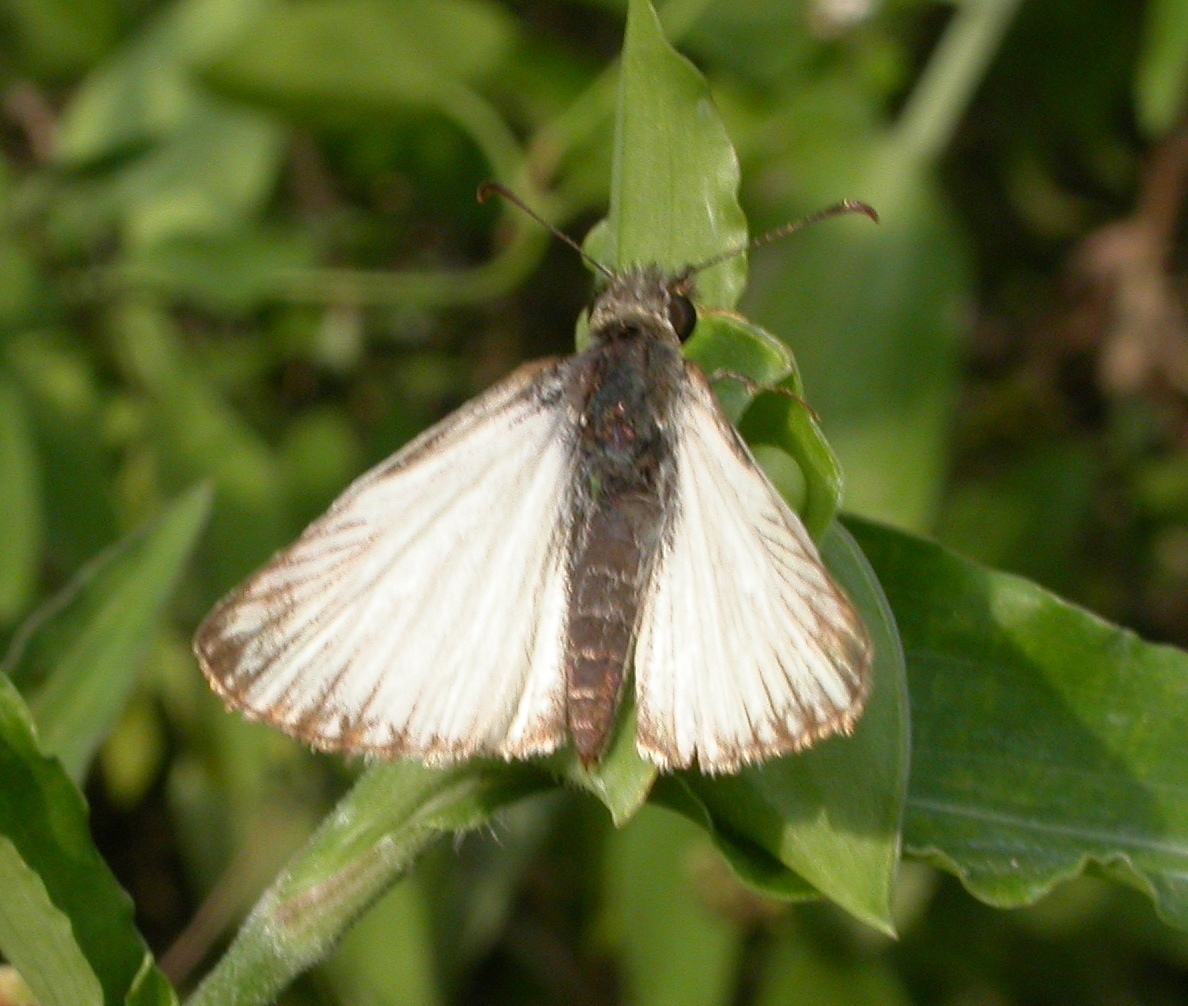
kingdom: Animalia
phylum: Arthropoda
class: Insecta
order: Lepidoptera
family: Hesperiidae
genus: Heliopetes
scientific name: Heliopetes macaira
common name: Turk's-cap white-skipper
